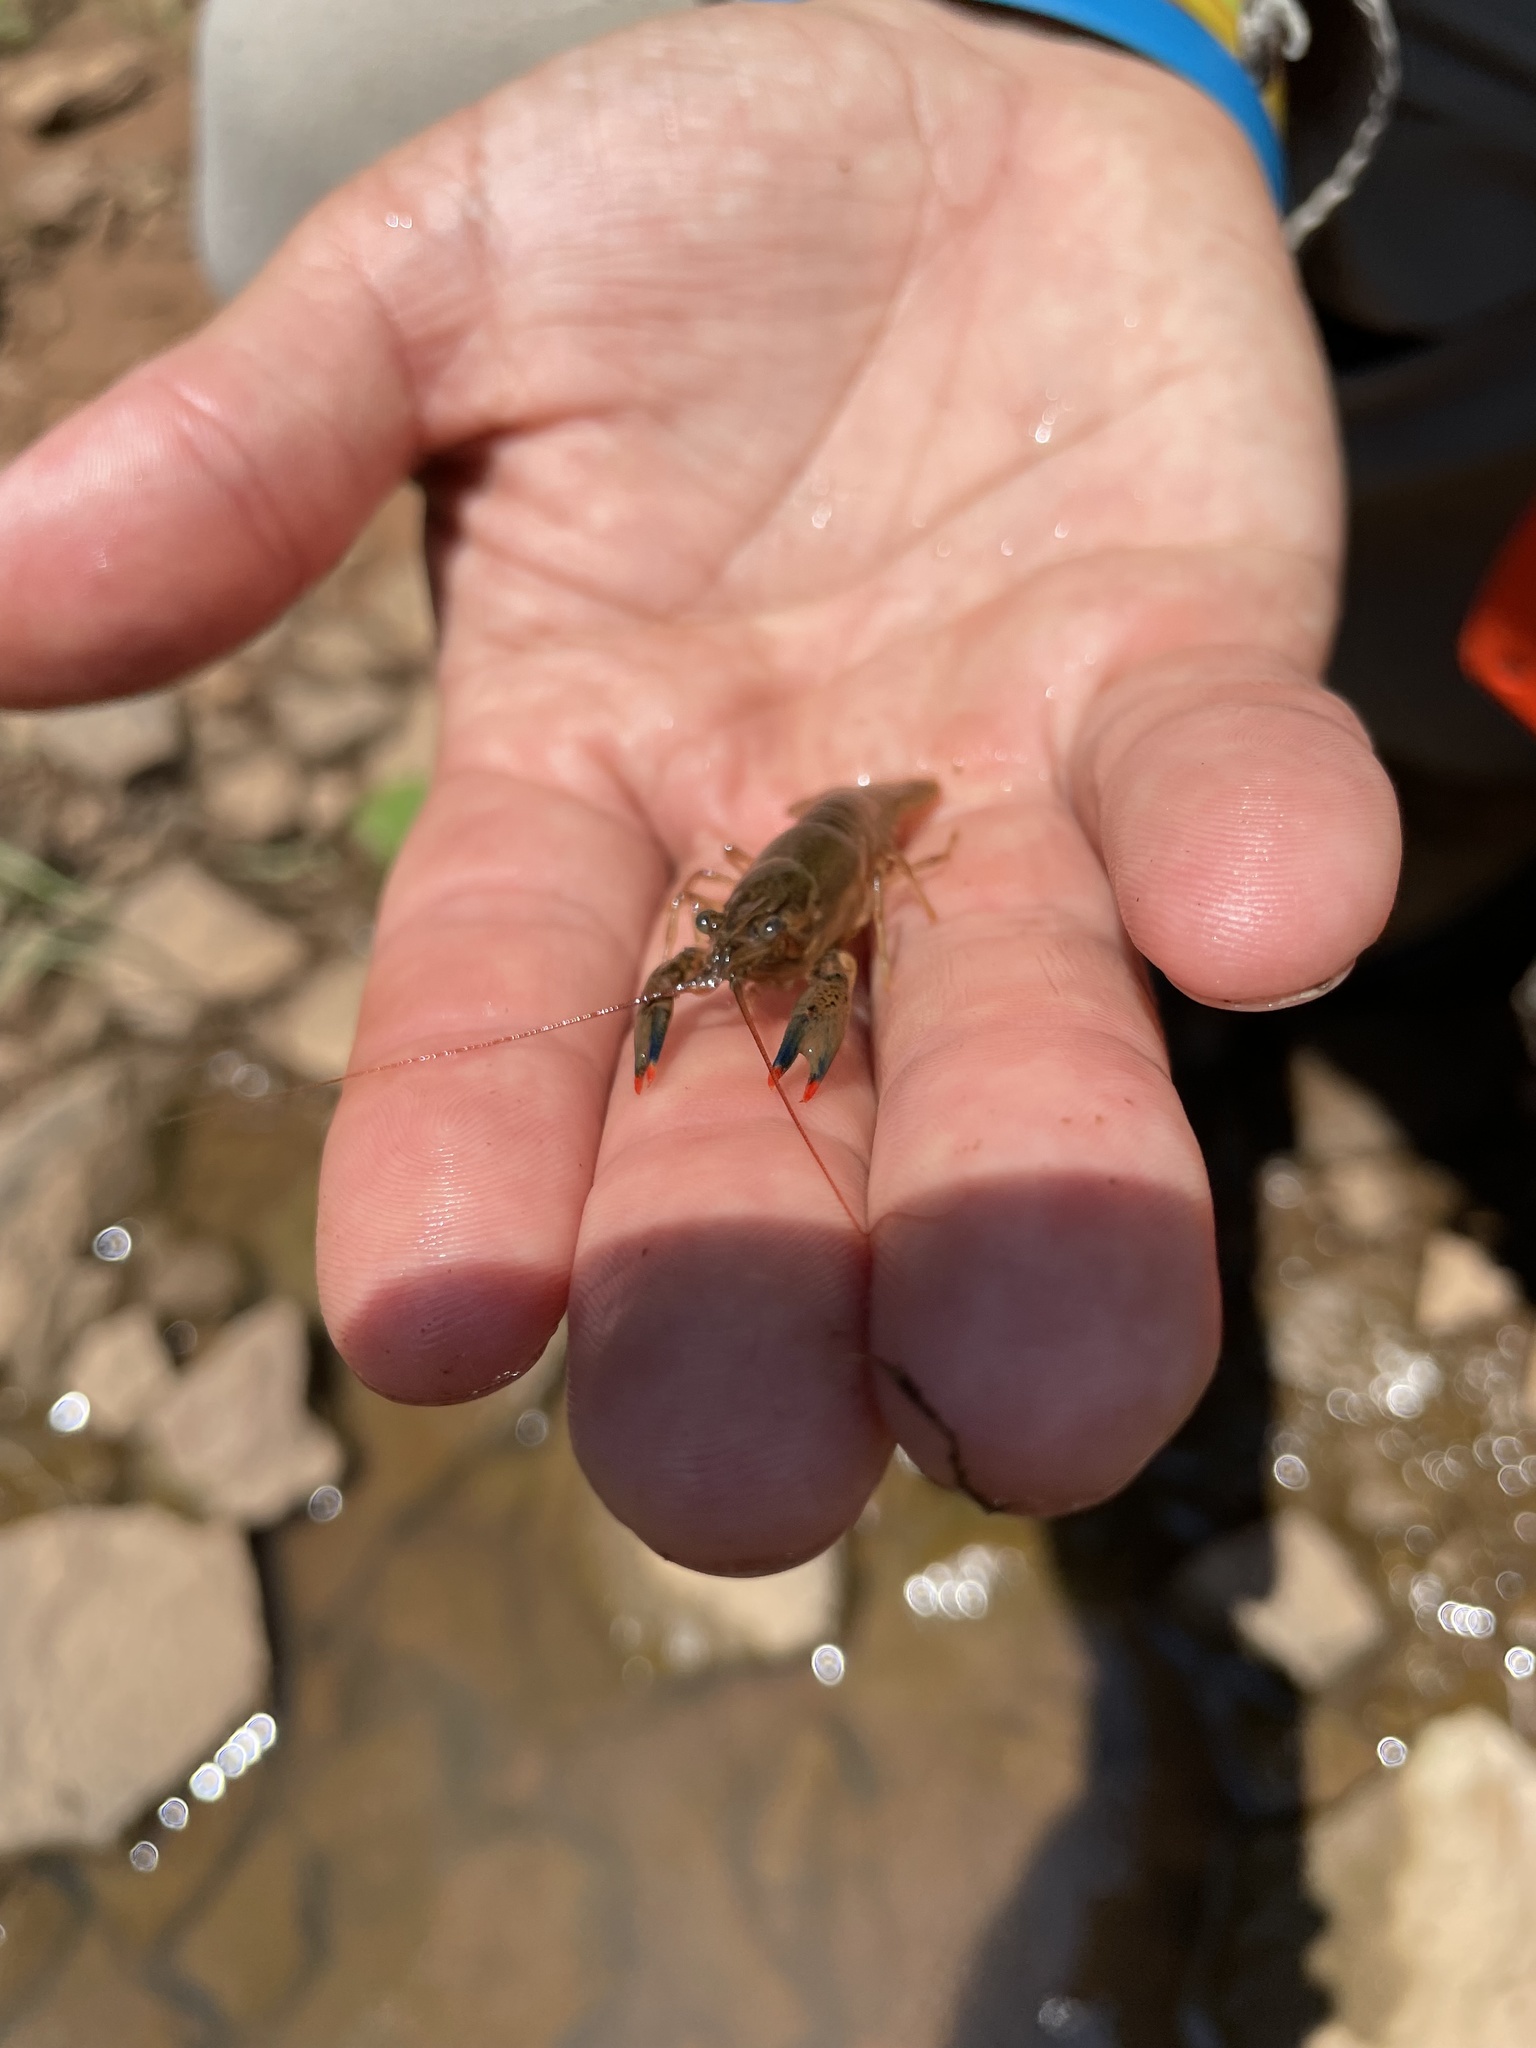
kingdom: Animalia
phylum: Arthropoda
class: Malacostraca
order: Decapoda
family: Cambaridae
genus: Faxonius
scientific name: Faxonius nais
